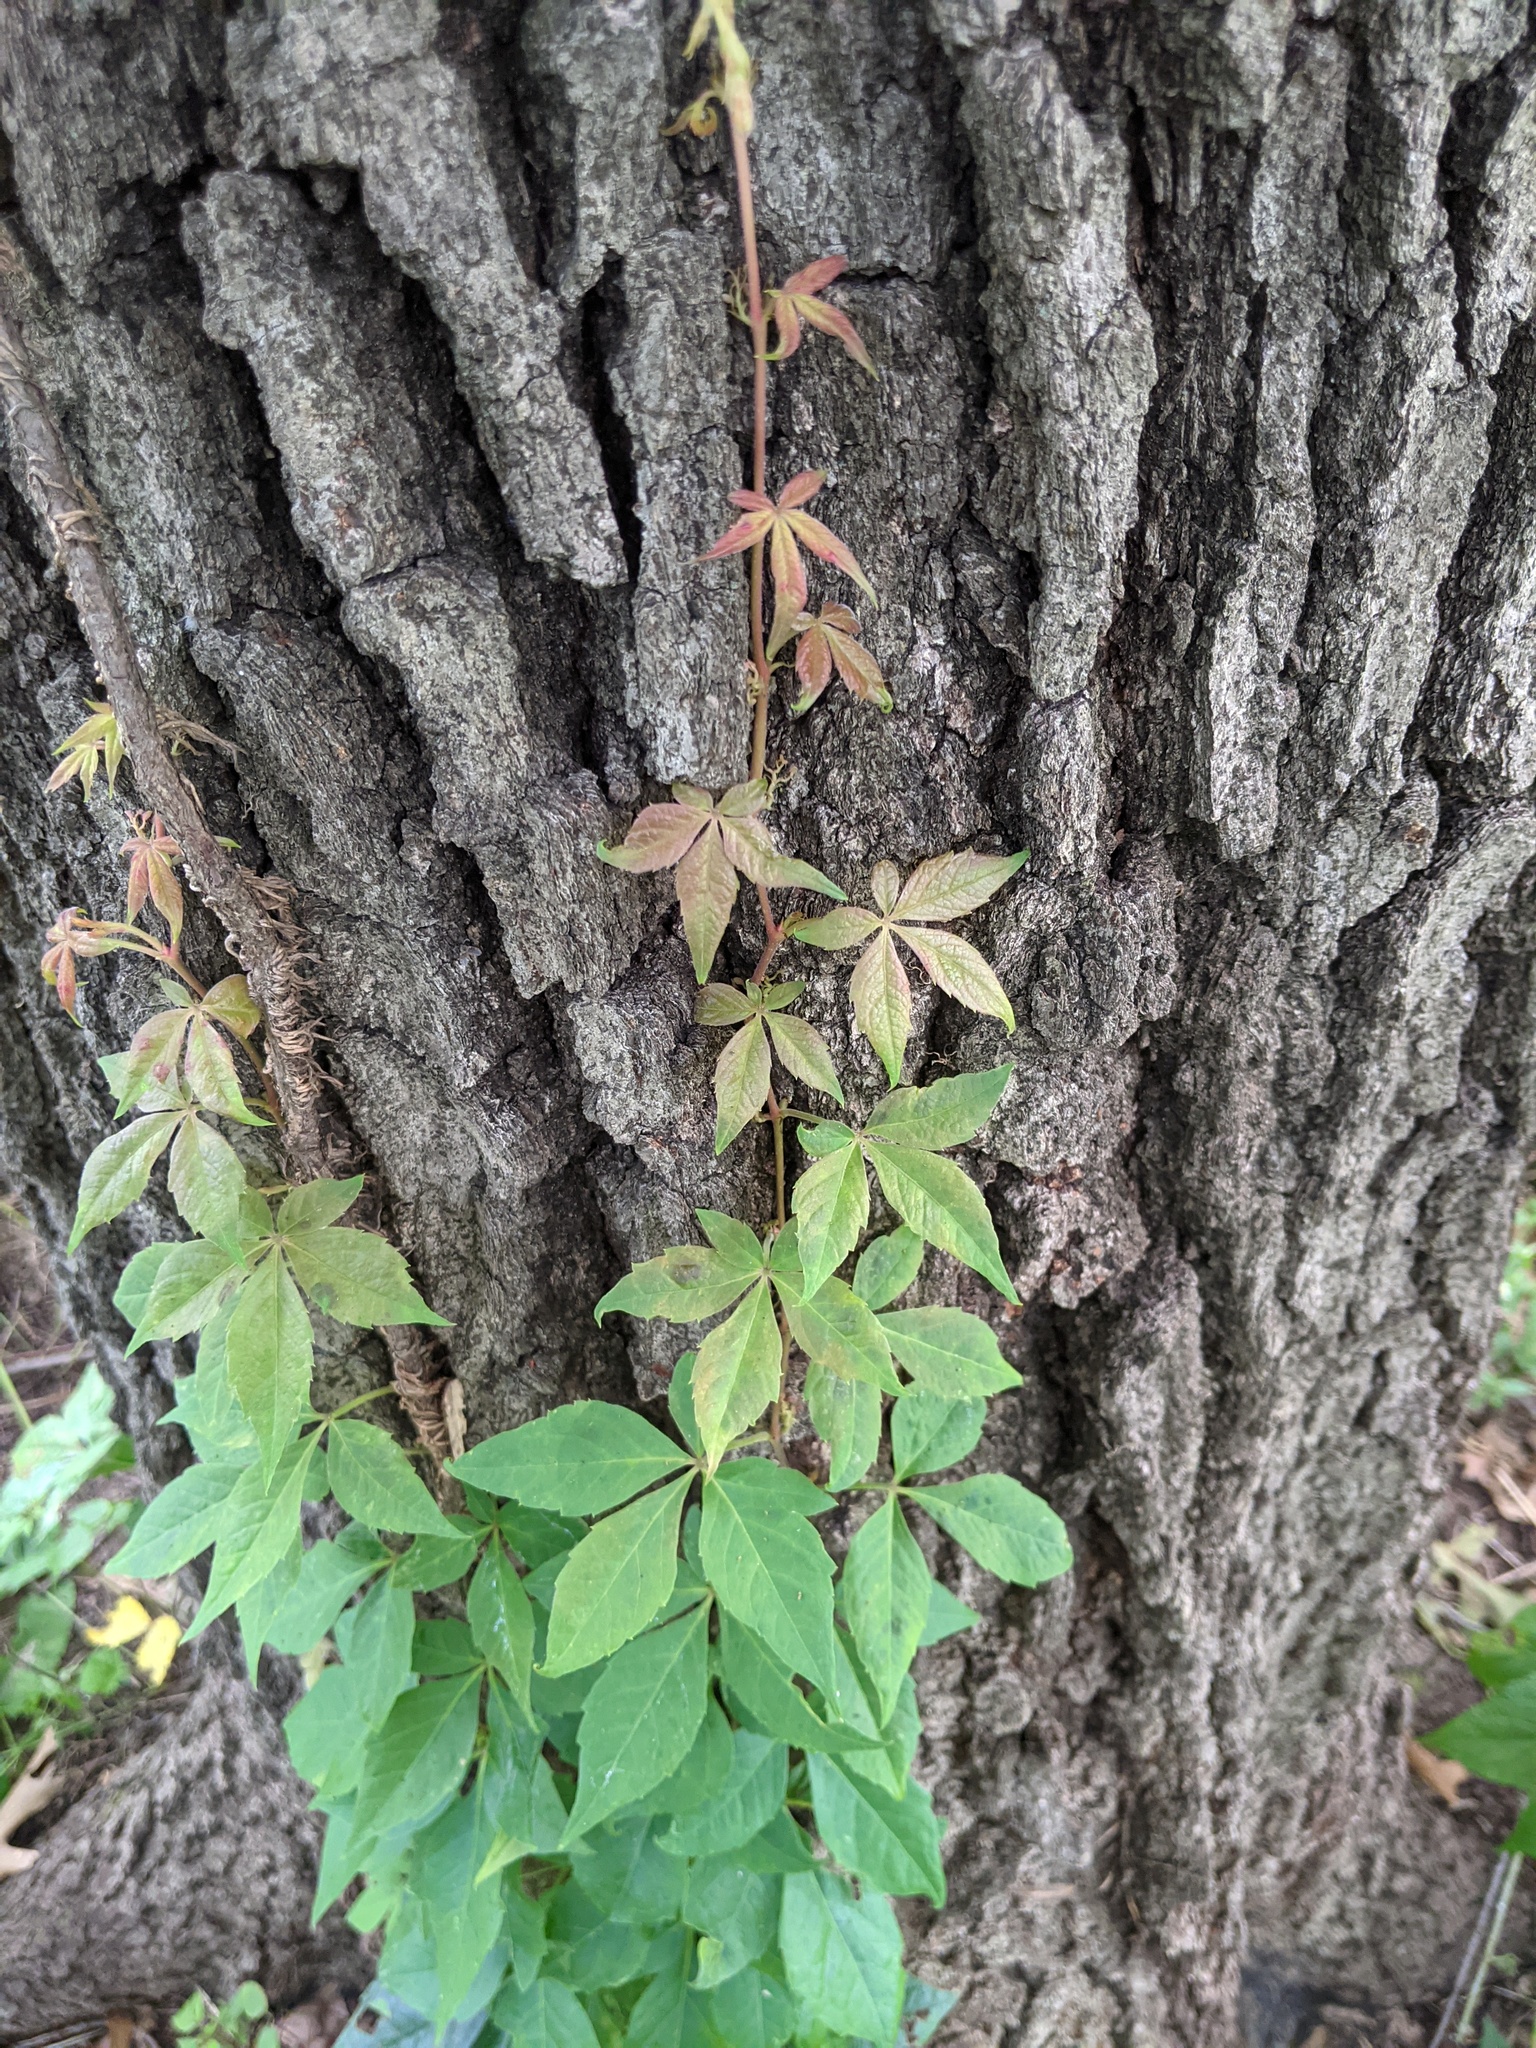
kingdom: Plantae
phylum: Tracheophyta
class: Magnoliopsida
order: Vitales
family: Vitaceae
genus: Parthenocissus
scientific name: Parthenocissus quinquefolia
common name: Virginia-creeper
